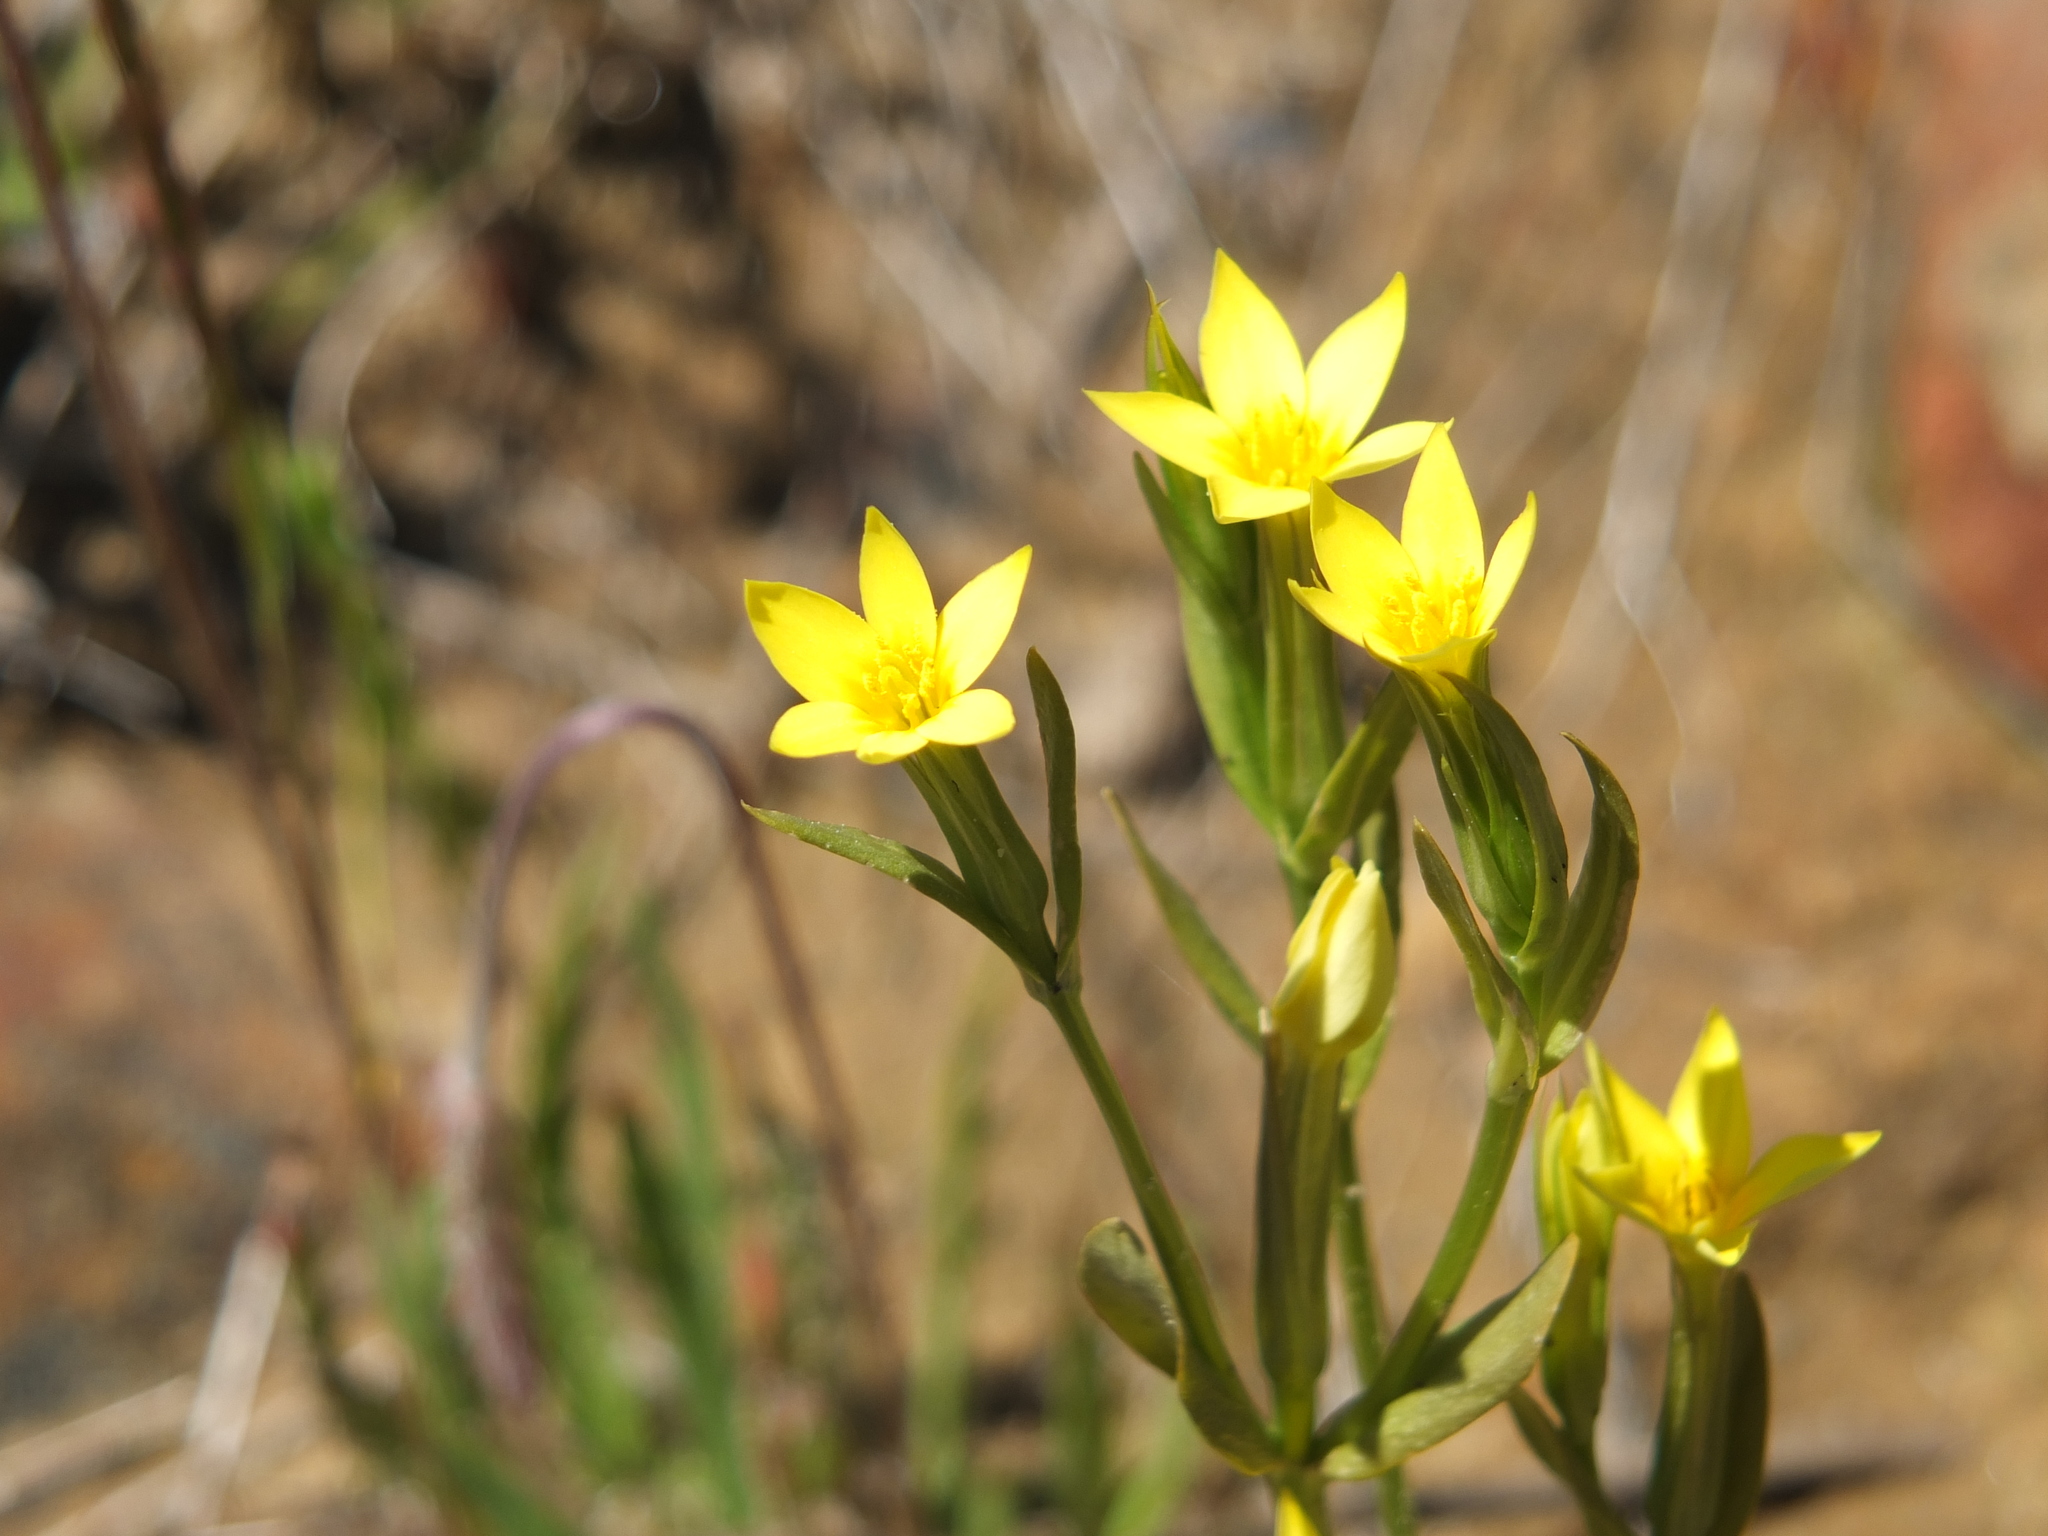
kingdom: Plantae
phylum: Tracheophyta
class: Magnoliopsida
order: Gentianales
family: Gentianaceae
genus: Centaurium
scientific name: Centaurium maritimum
